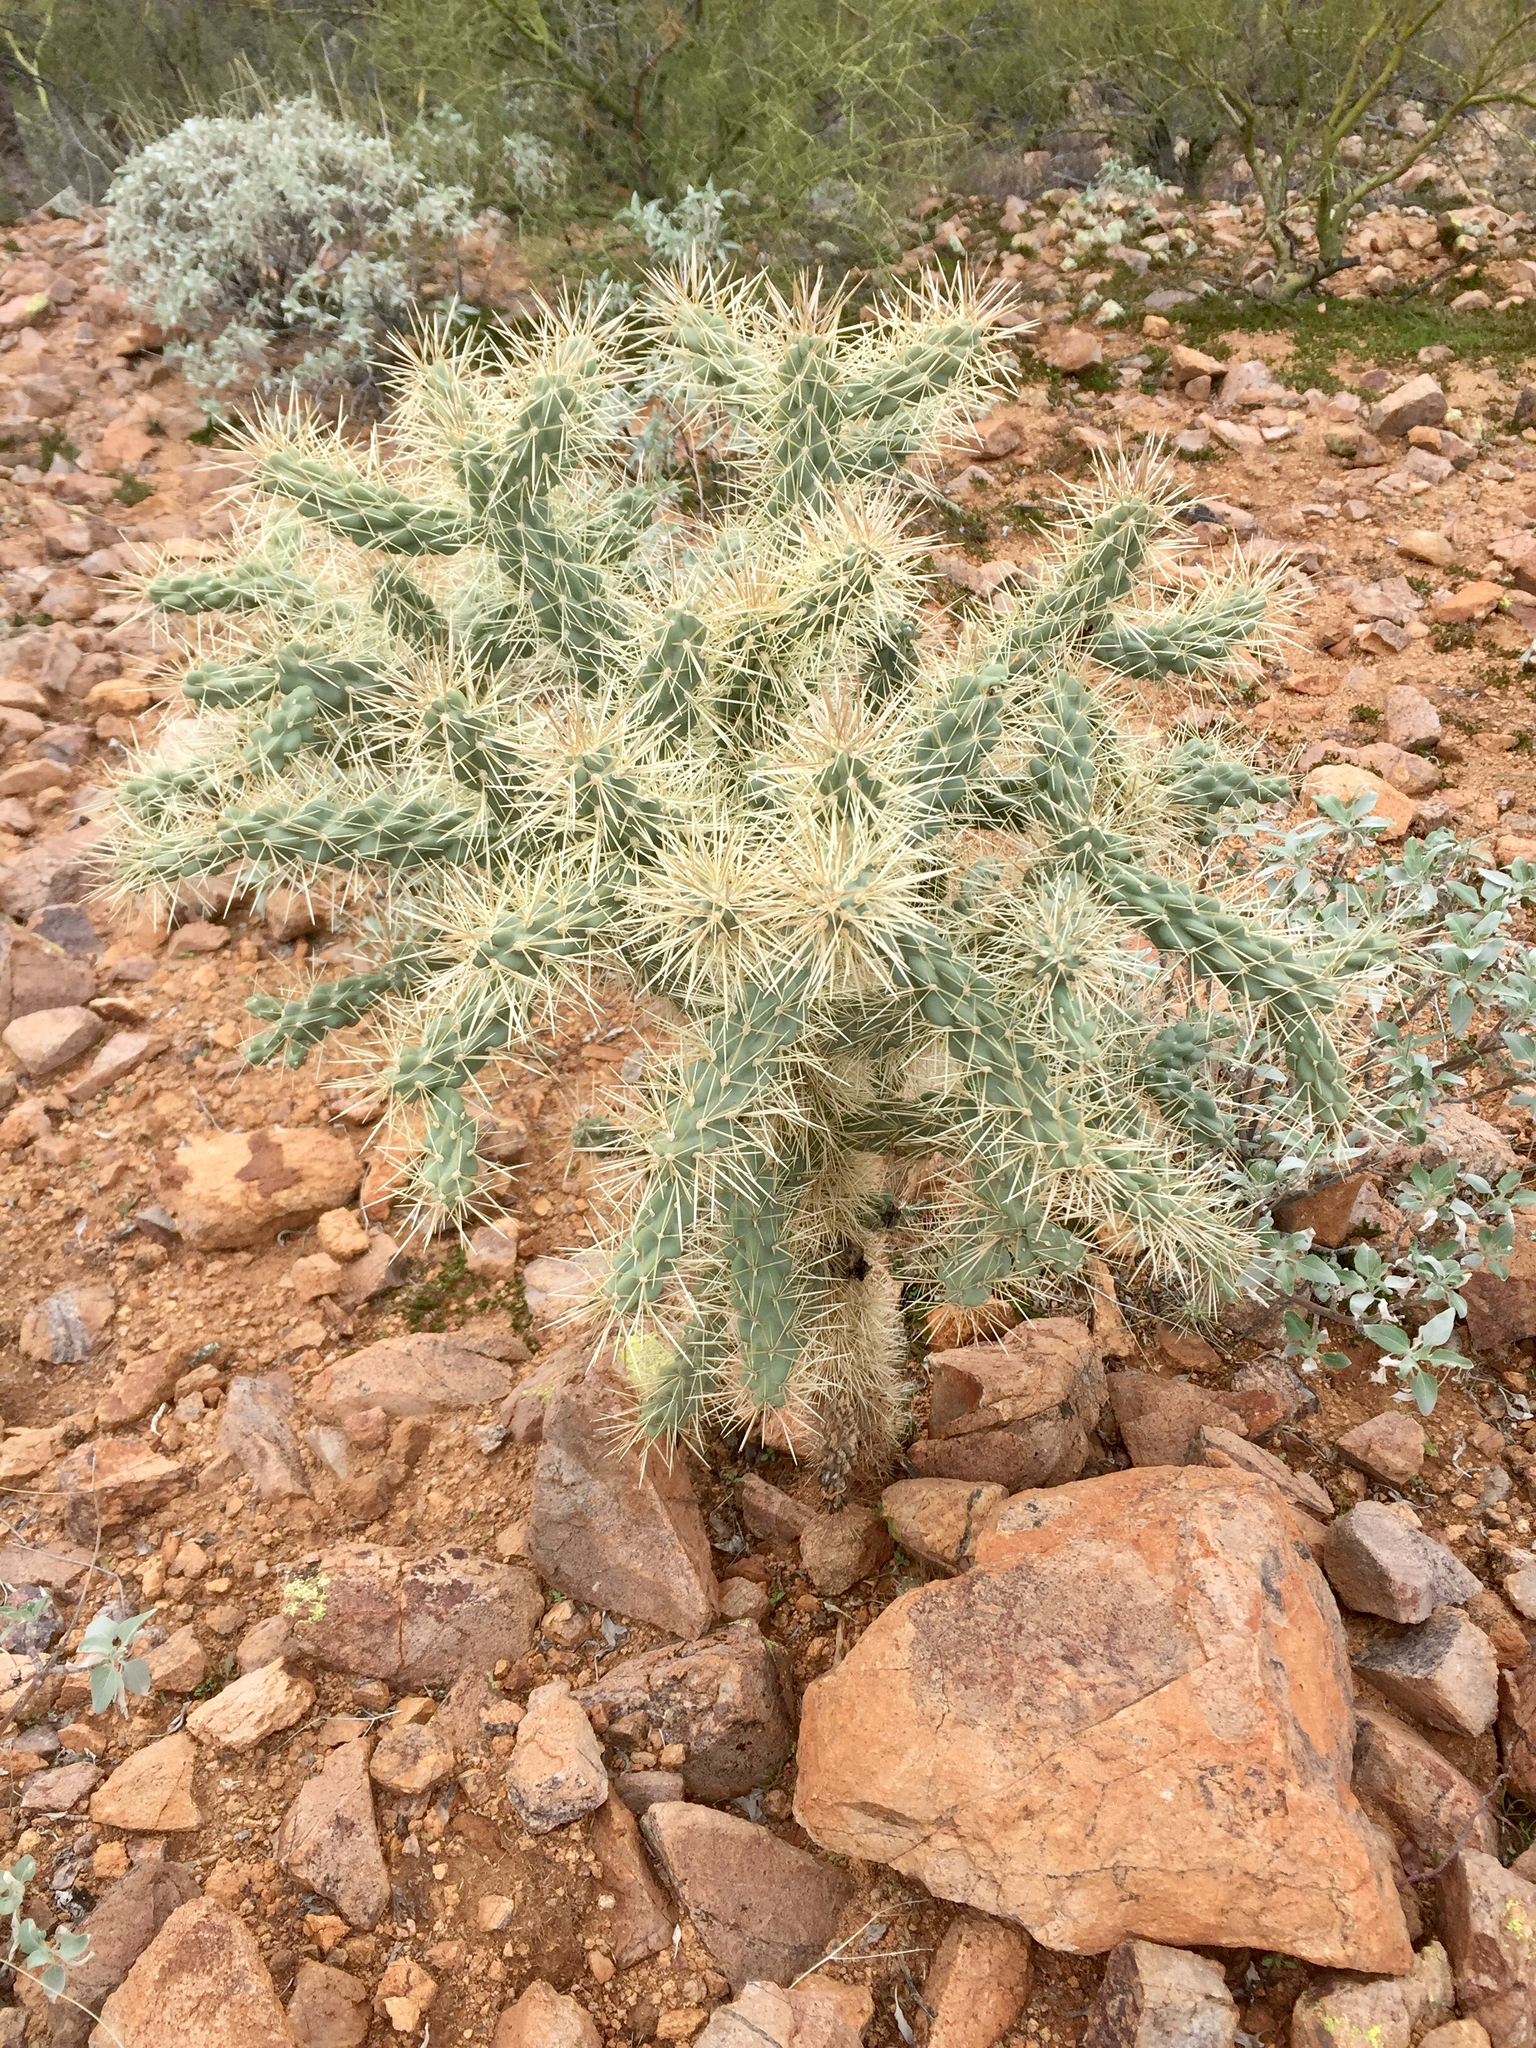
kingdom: Plantae
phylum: Tracheophyta
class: Magnoliopsida
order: Caryophyllales
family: Cactaceae
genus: Cylindropuntia
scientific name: Cylindropuntia fulgida
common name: Jumping cholla
